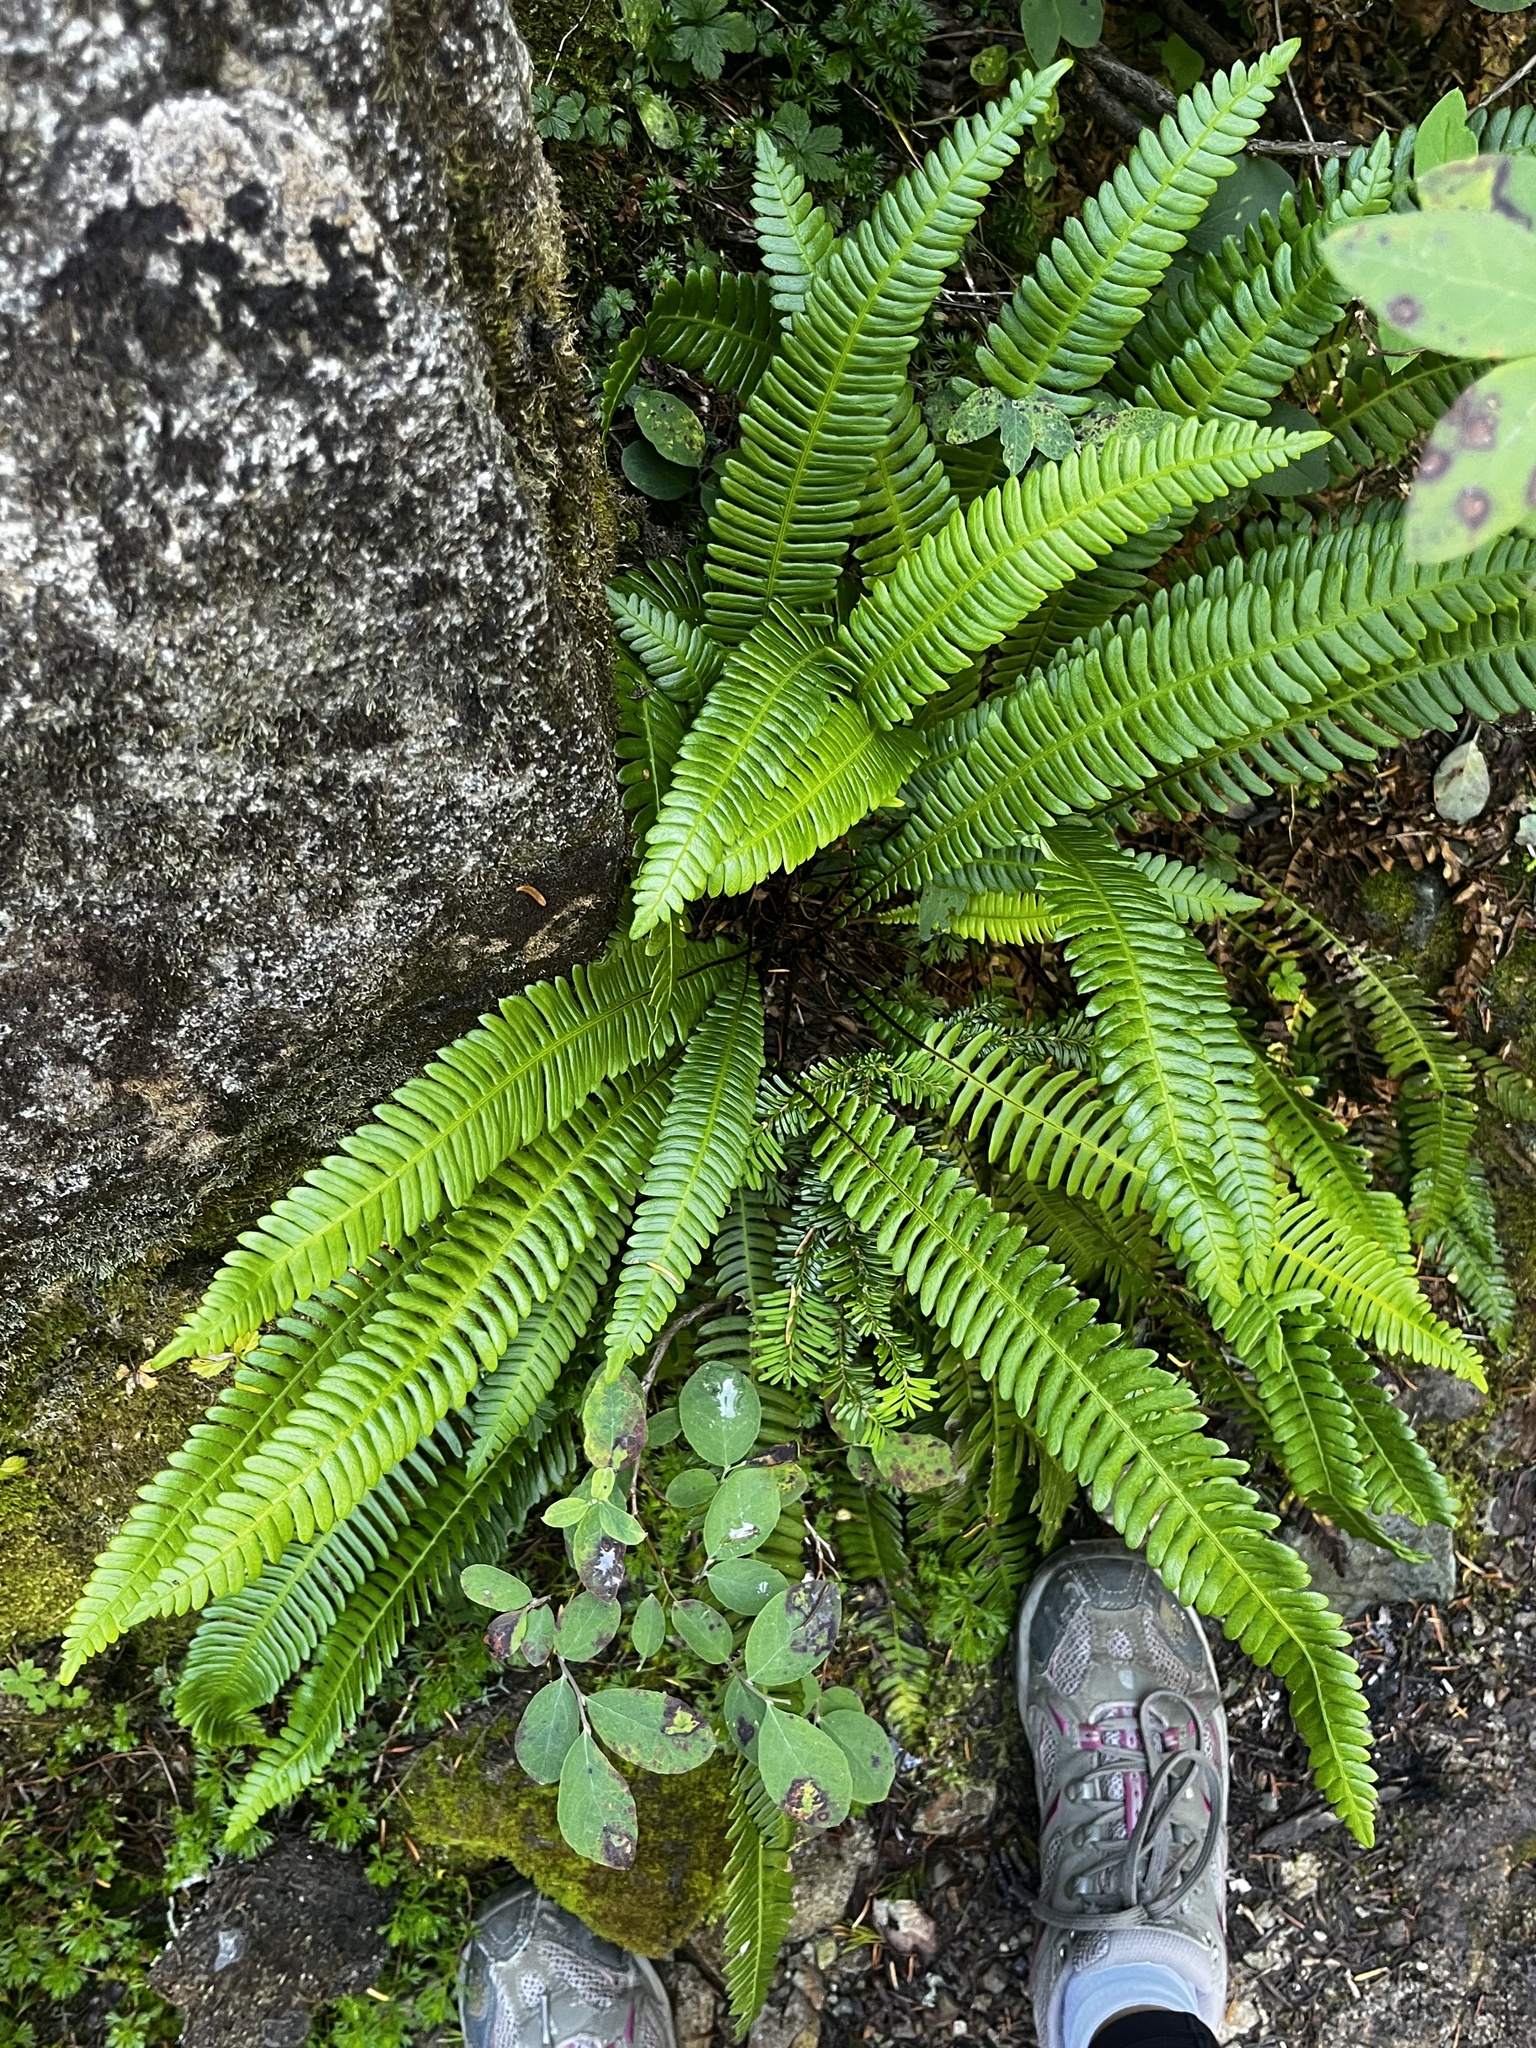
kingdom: Plantae
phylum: Tracheophyta
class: Polypodiopsida
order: Polypodiales
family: Blechnaceae
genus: Struthiopteris
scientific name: Struthiopteris spicant
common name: Deer fern
